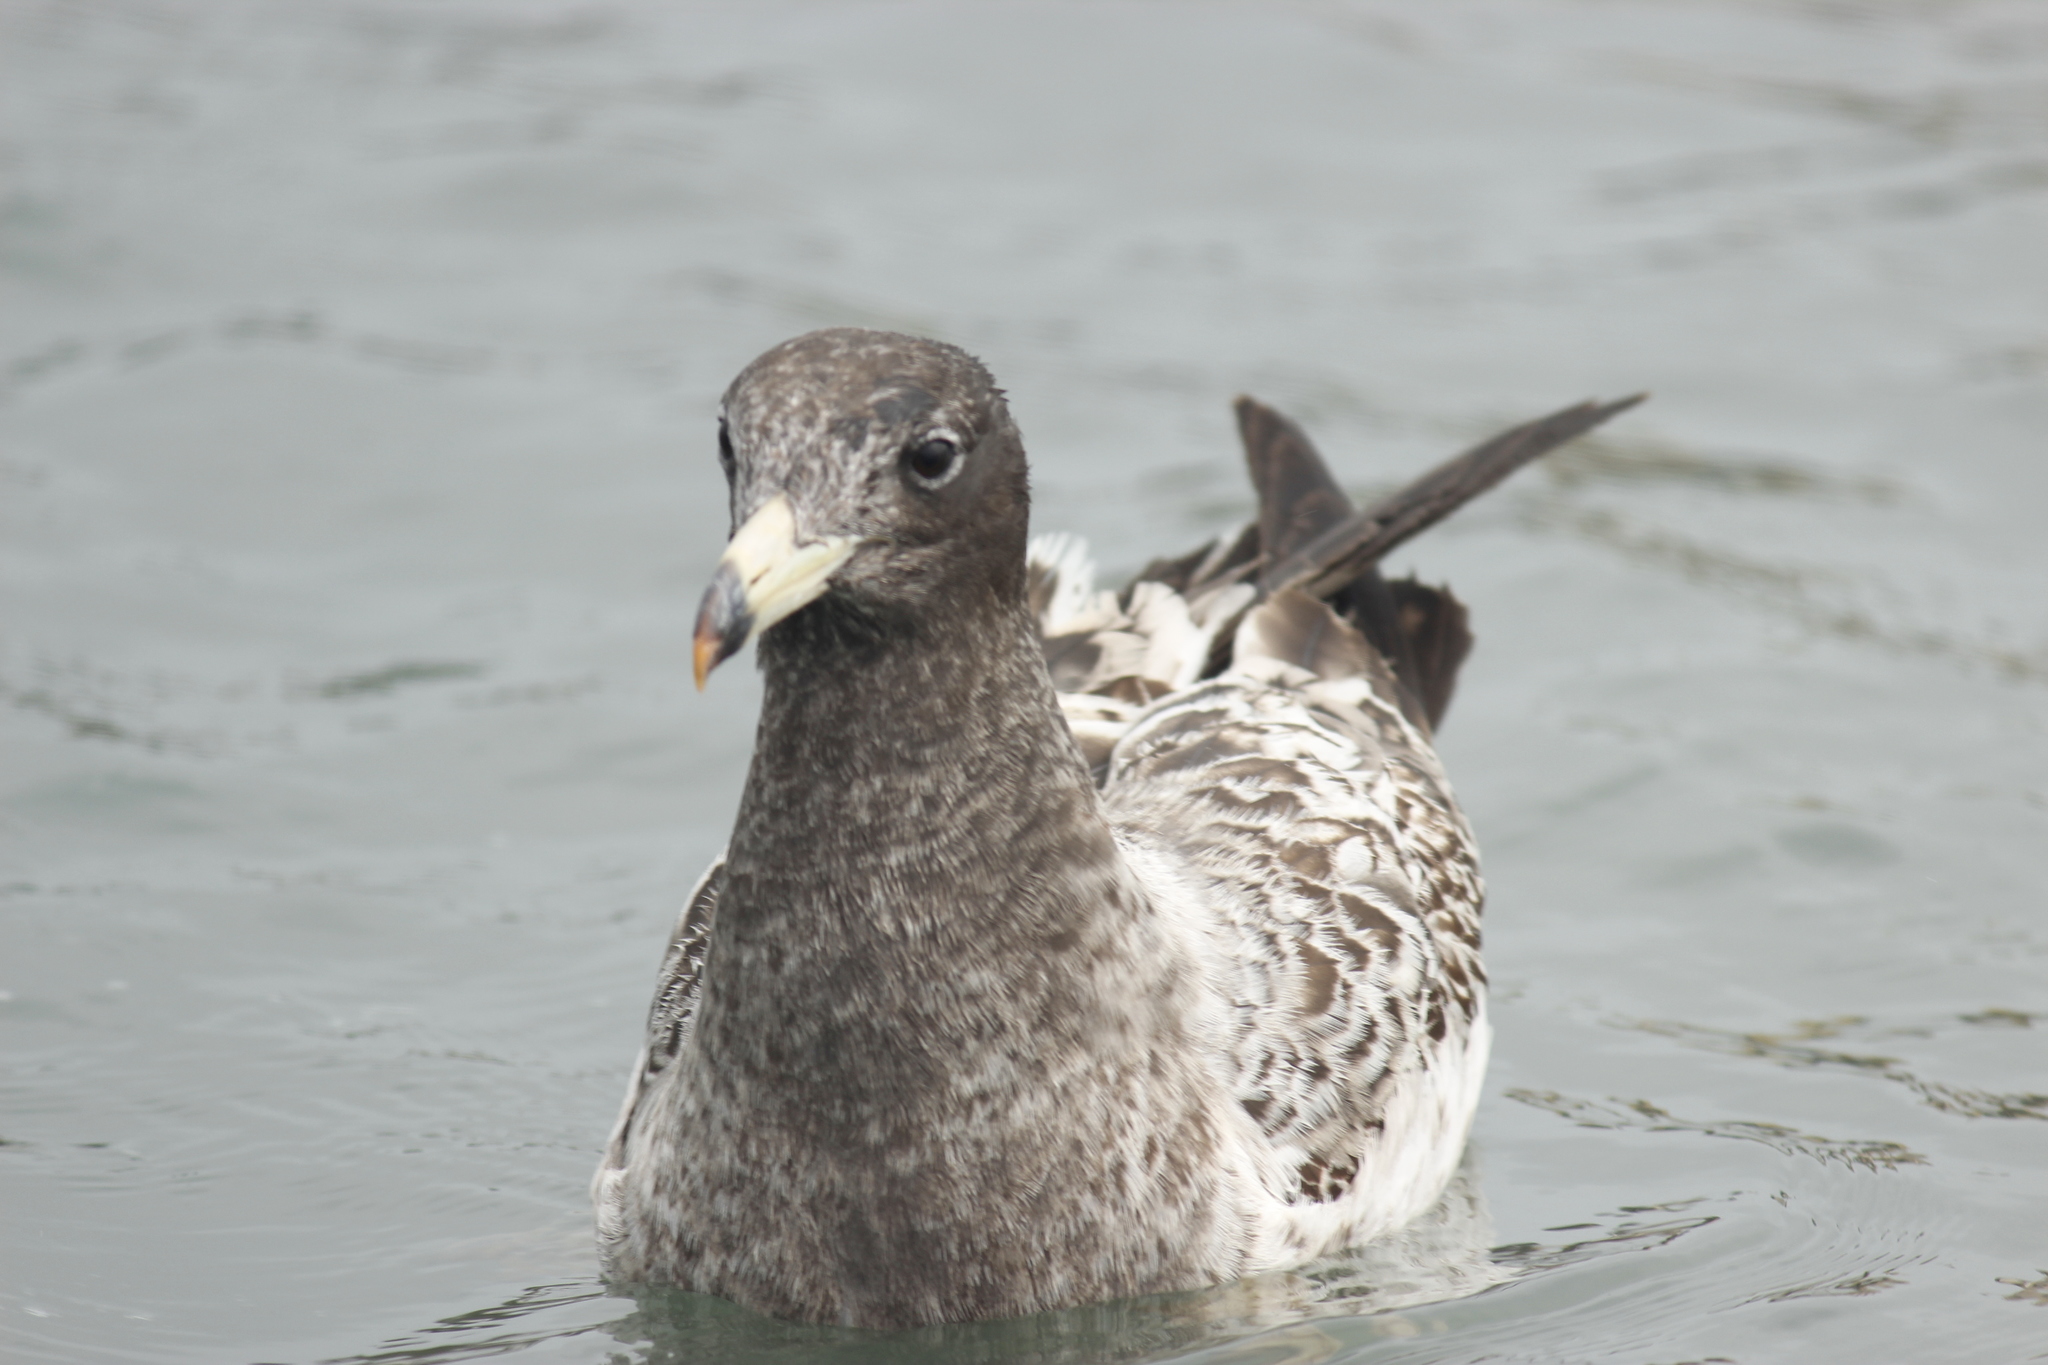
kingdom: Animalia
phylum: Chordata
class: Aves
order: Charadriiformes
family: Laridae
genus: Larus
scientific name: Larus belcheri
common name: Belcher's gull
